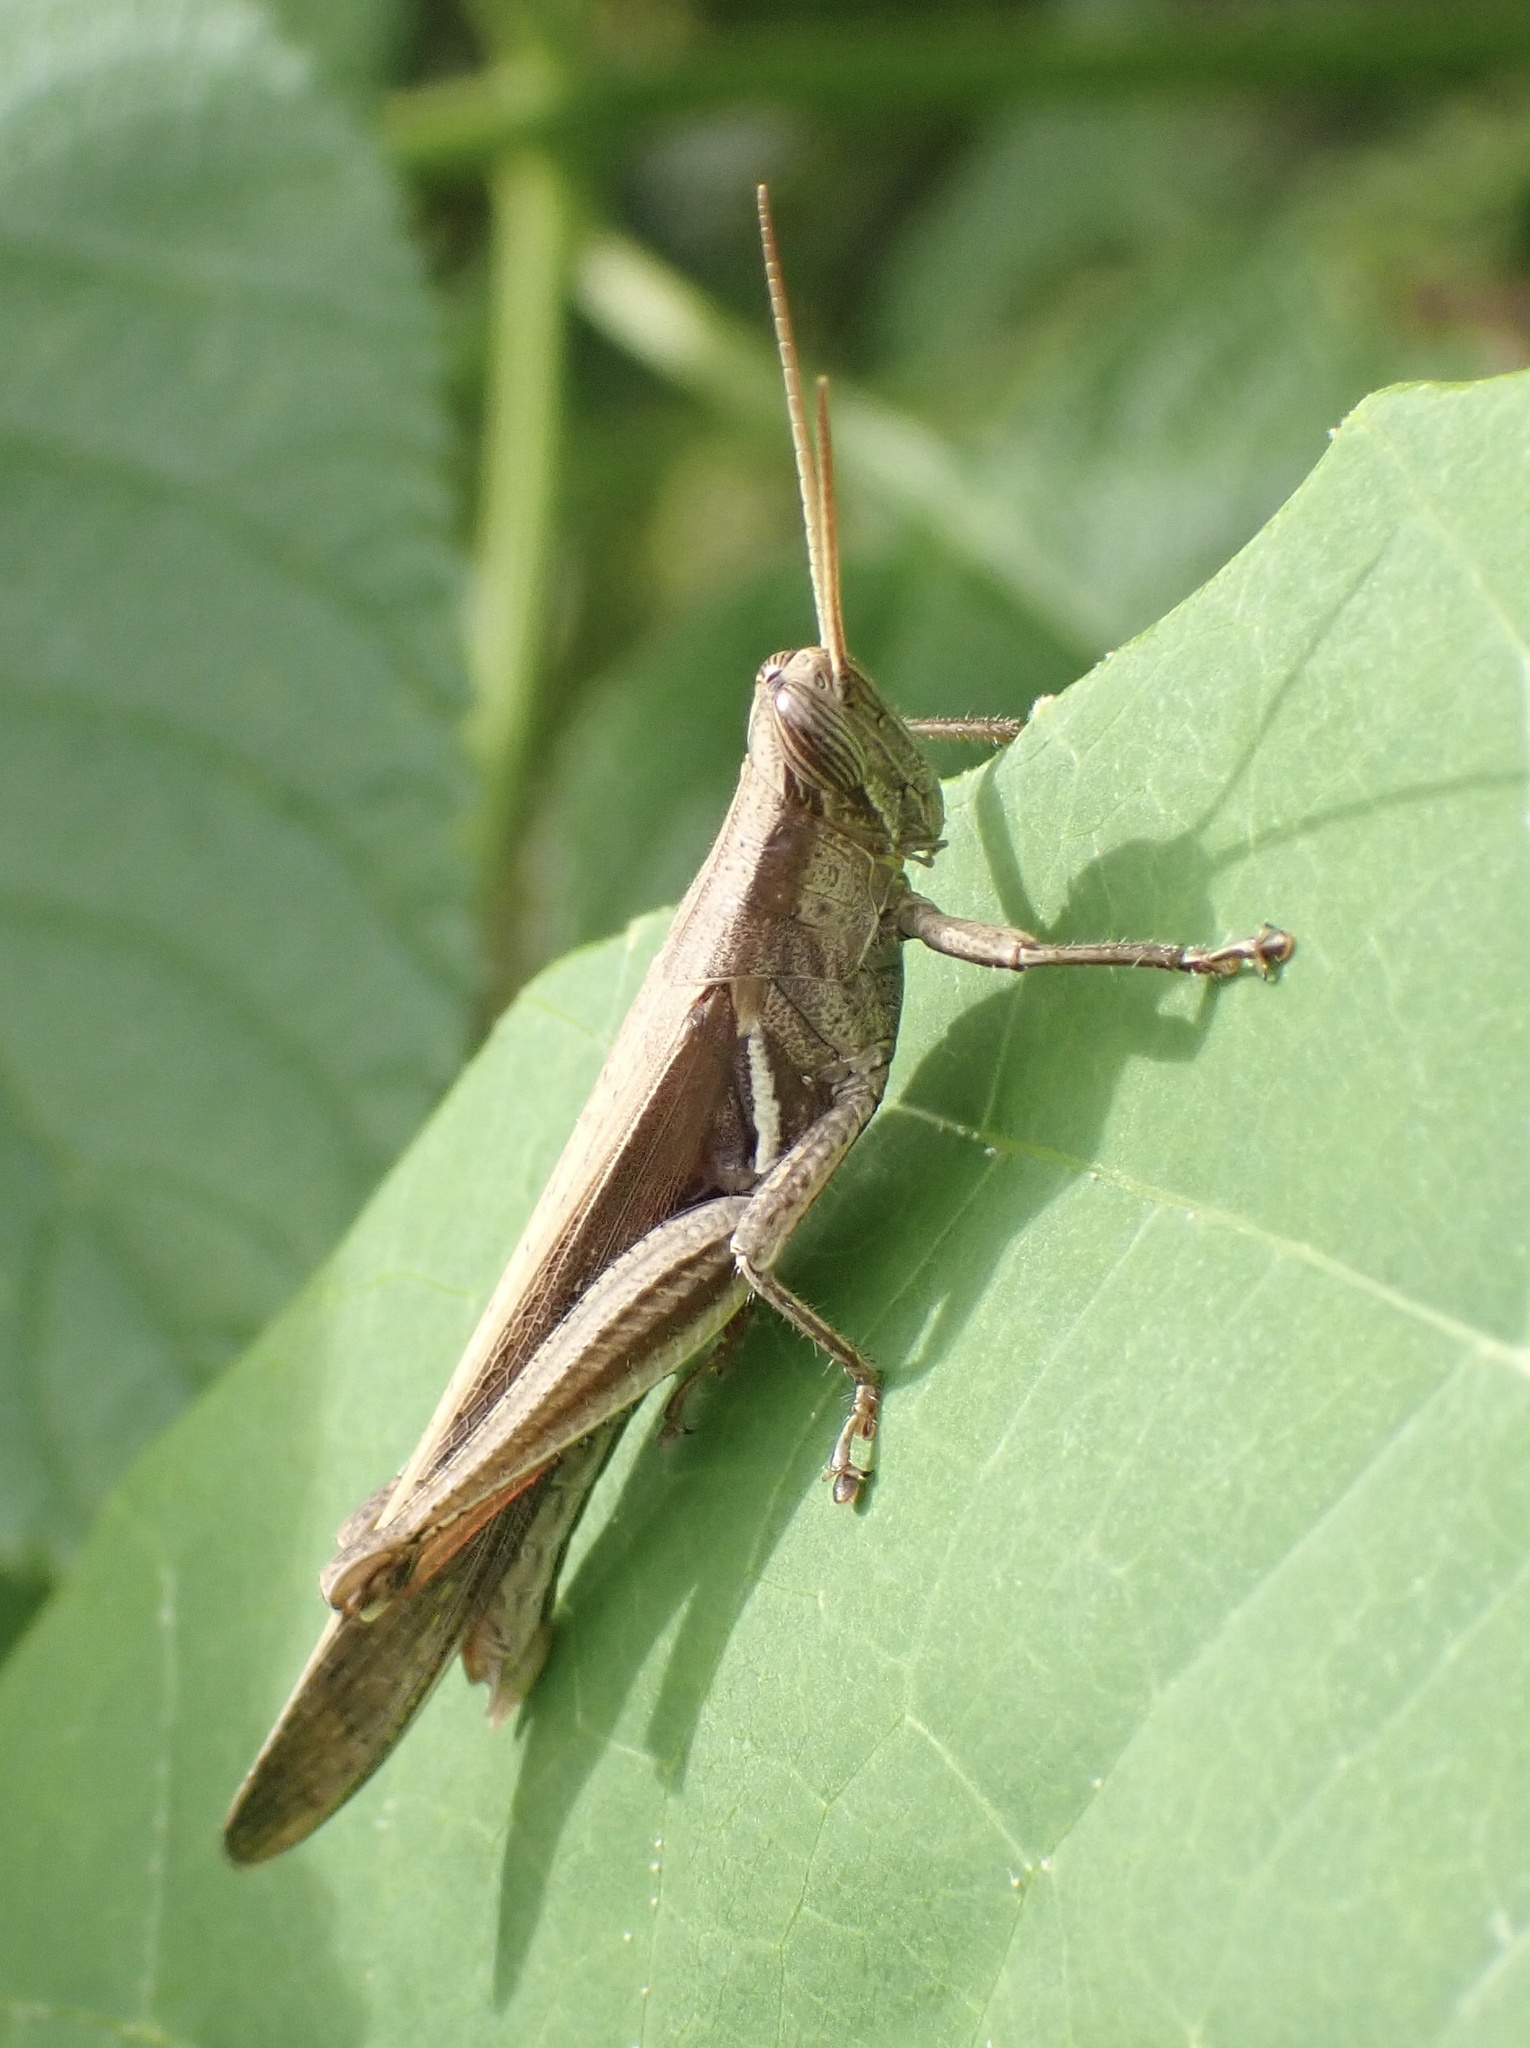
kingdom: Animalia
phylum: Arthropoda
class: Insecta
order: Orthoptera
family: Acrididae
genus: Stenocatantops
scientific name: Stenocatantops splendens
